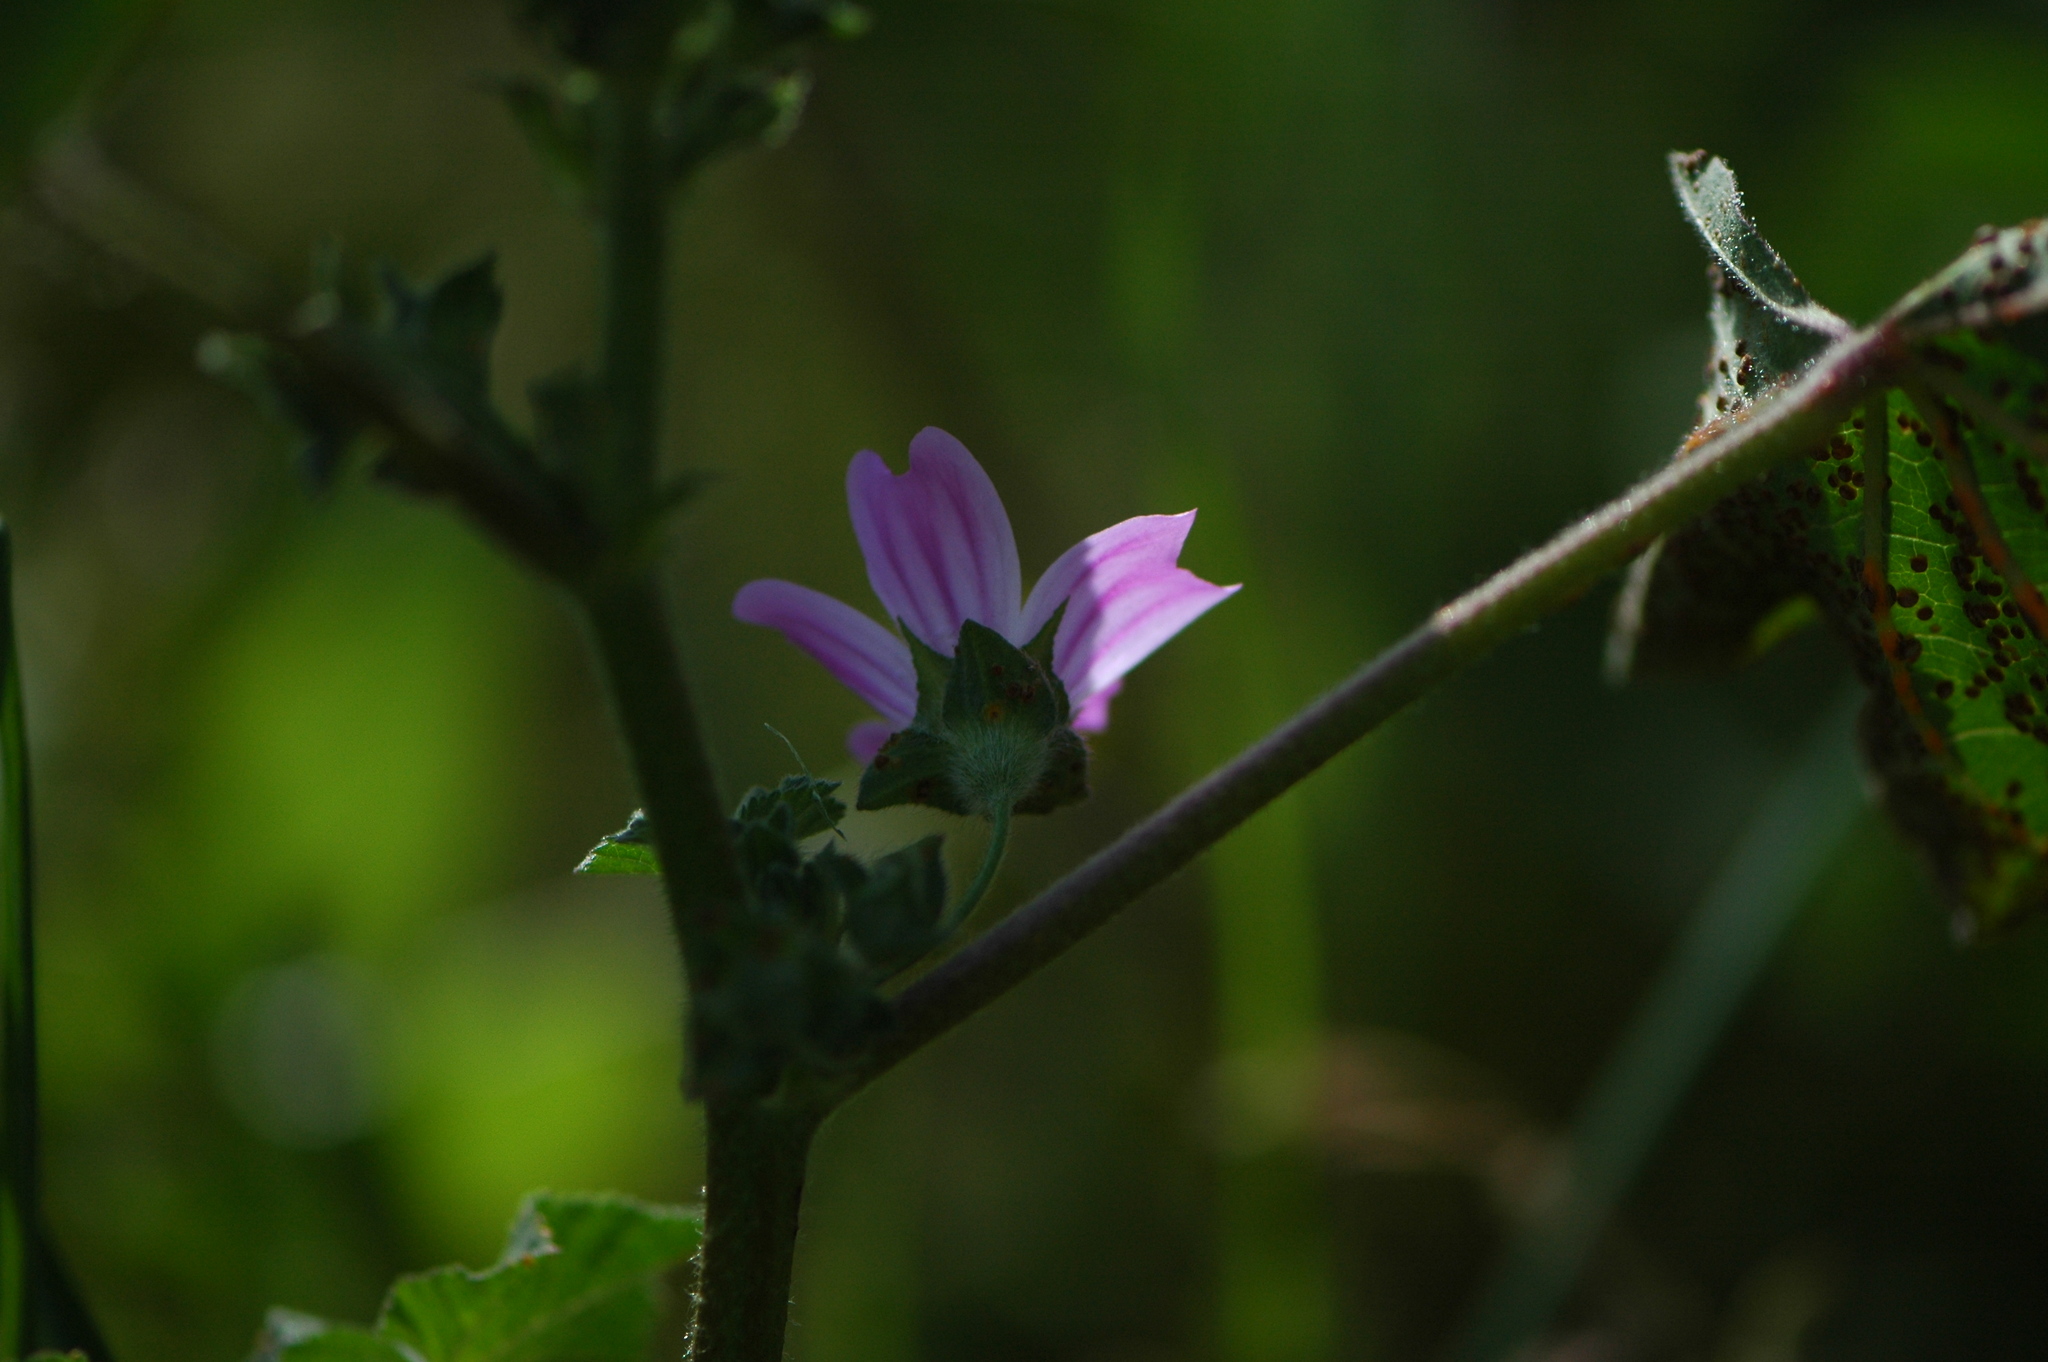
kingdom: Plantae
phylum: Tracheophyta
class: Magnoliopsida
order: Malvales
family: Malvaceae
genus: Malva
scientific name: Malva sylvestris
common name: Common mallow
